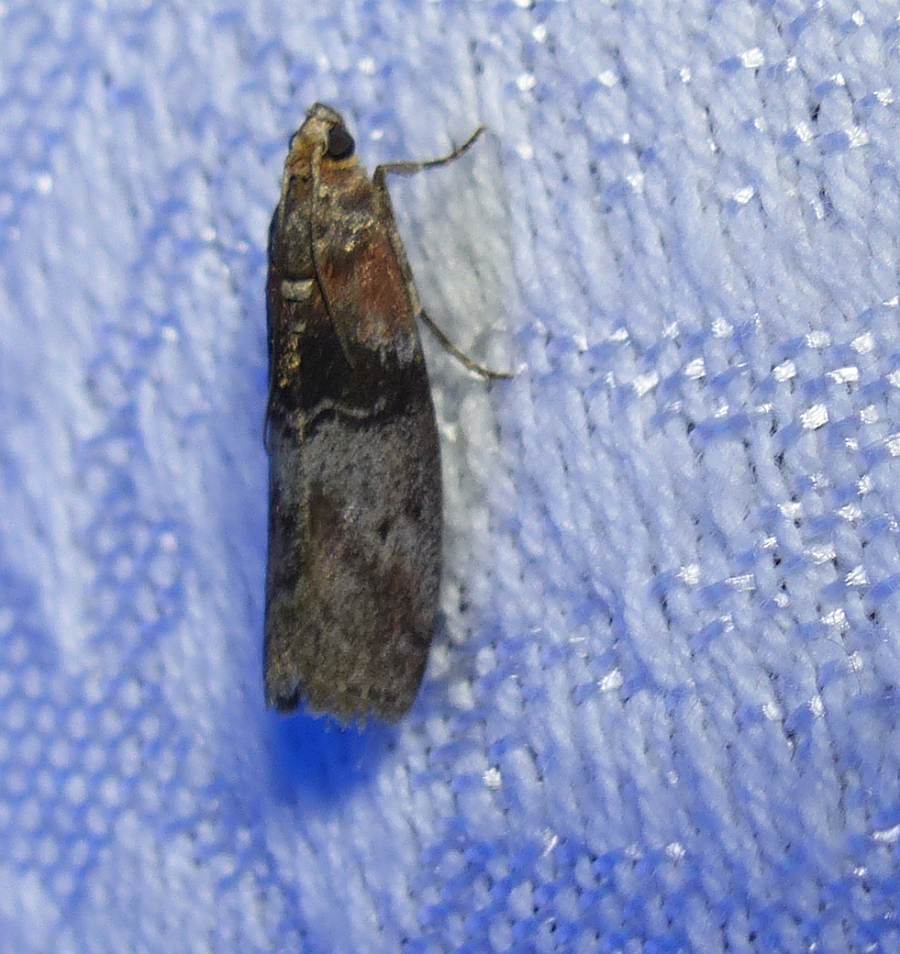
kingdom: Animalia
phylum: Arthropoda
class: Insecta
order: Lepidoptera
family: Pyralidae
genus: Sciota
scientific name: Sciota vetustella
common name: Belted leafroller moth
